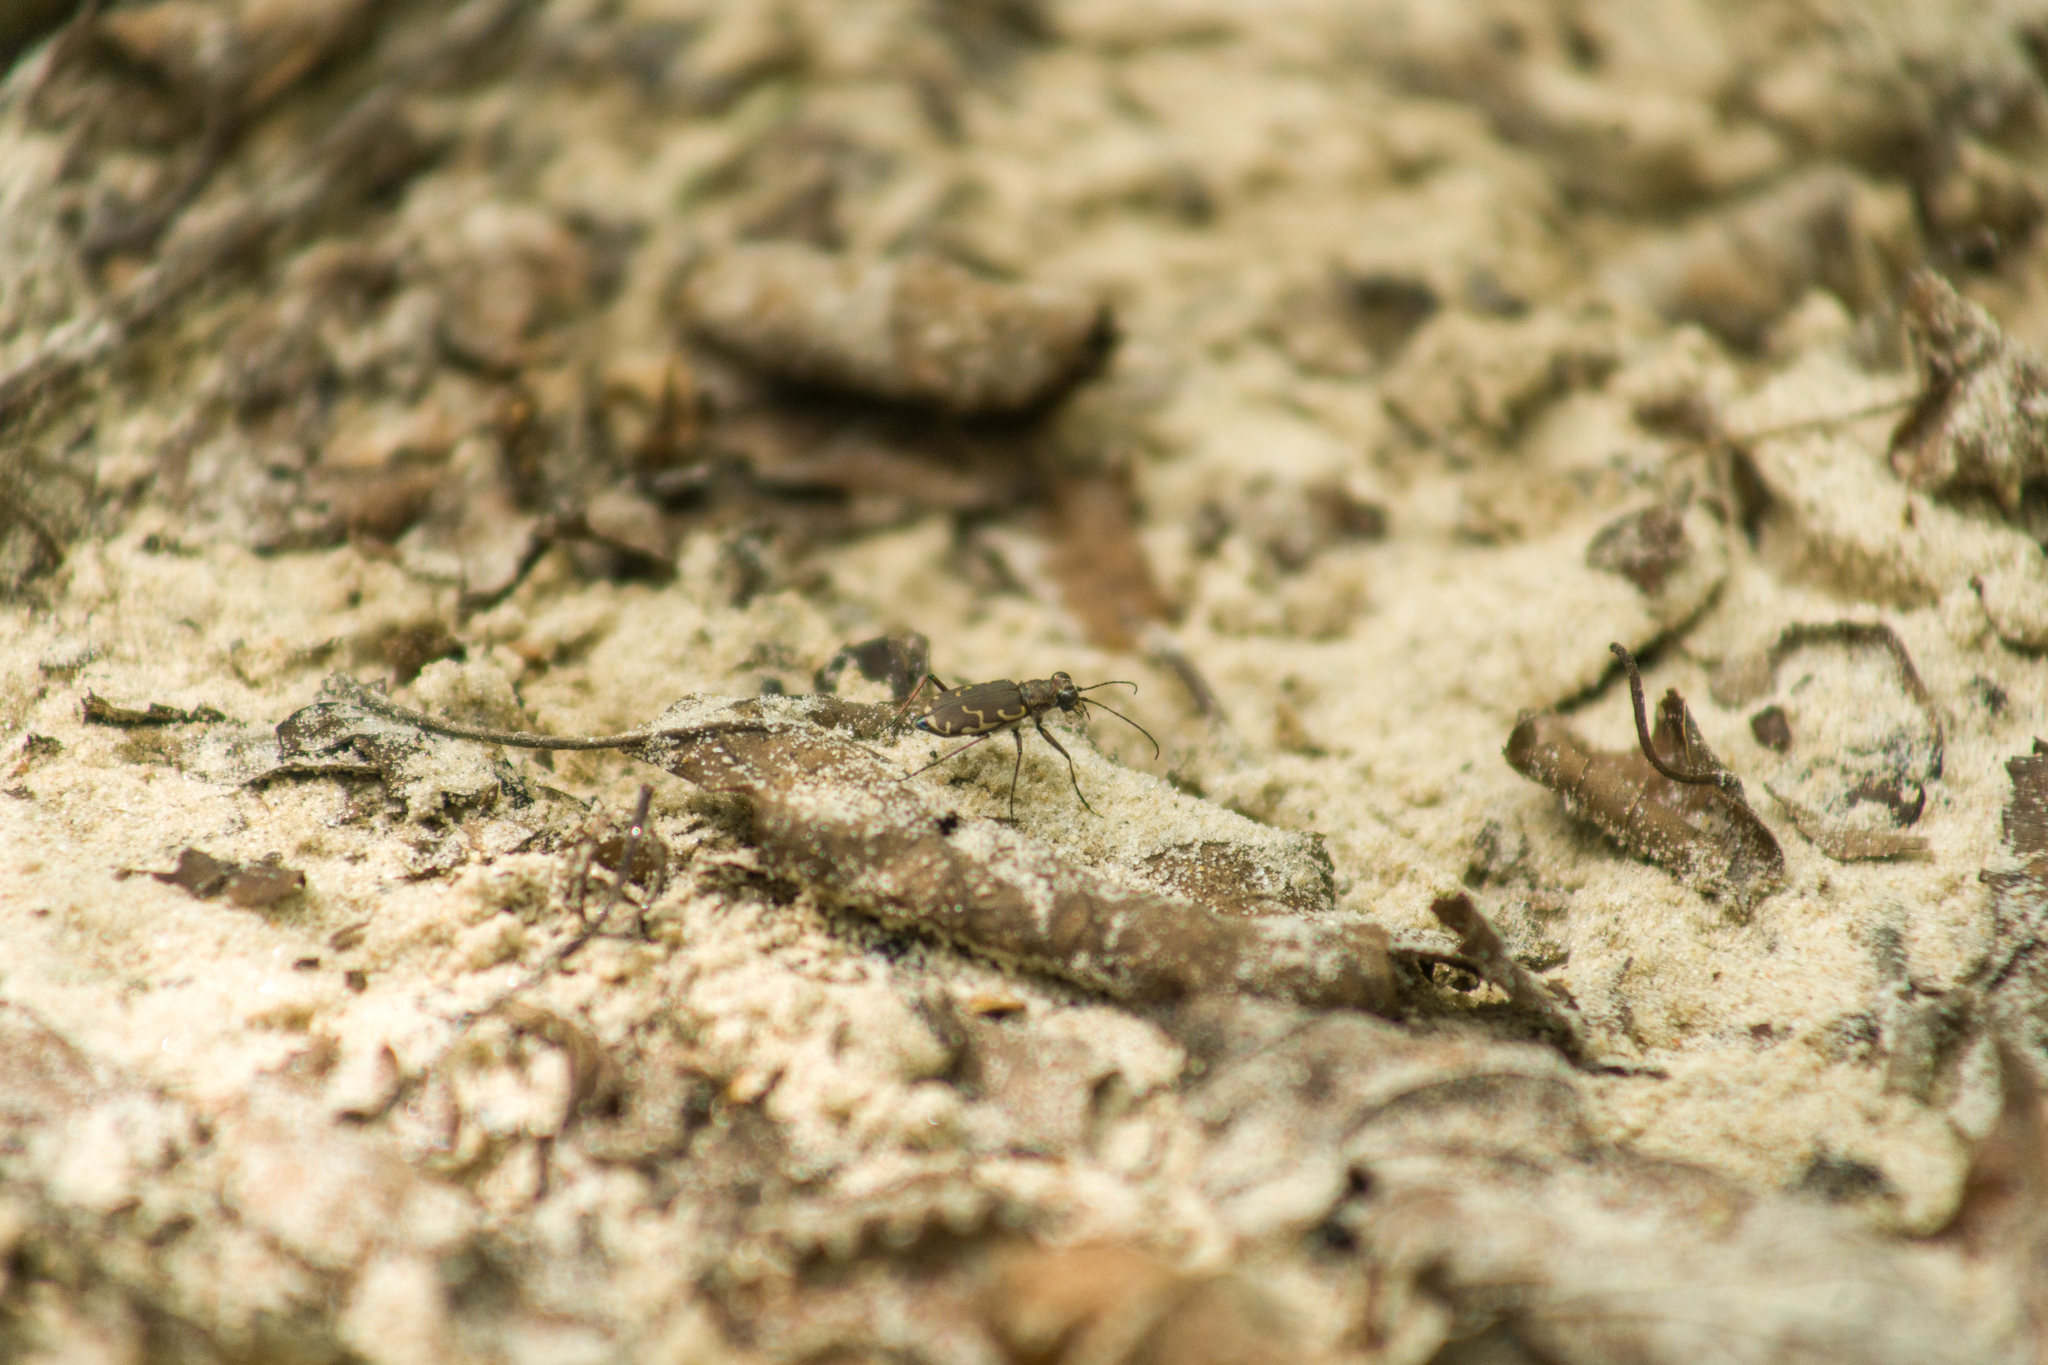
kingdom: Animalia
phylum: Arthropoda
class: Insecta
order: Coleoptera
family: Carabidae
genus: Cicindela
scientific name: Cicindela repanda
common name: Bronzed tiger beetle
